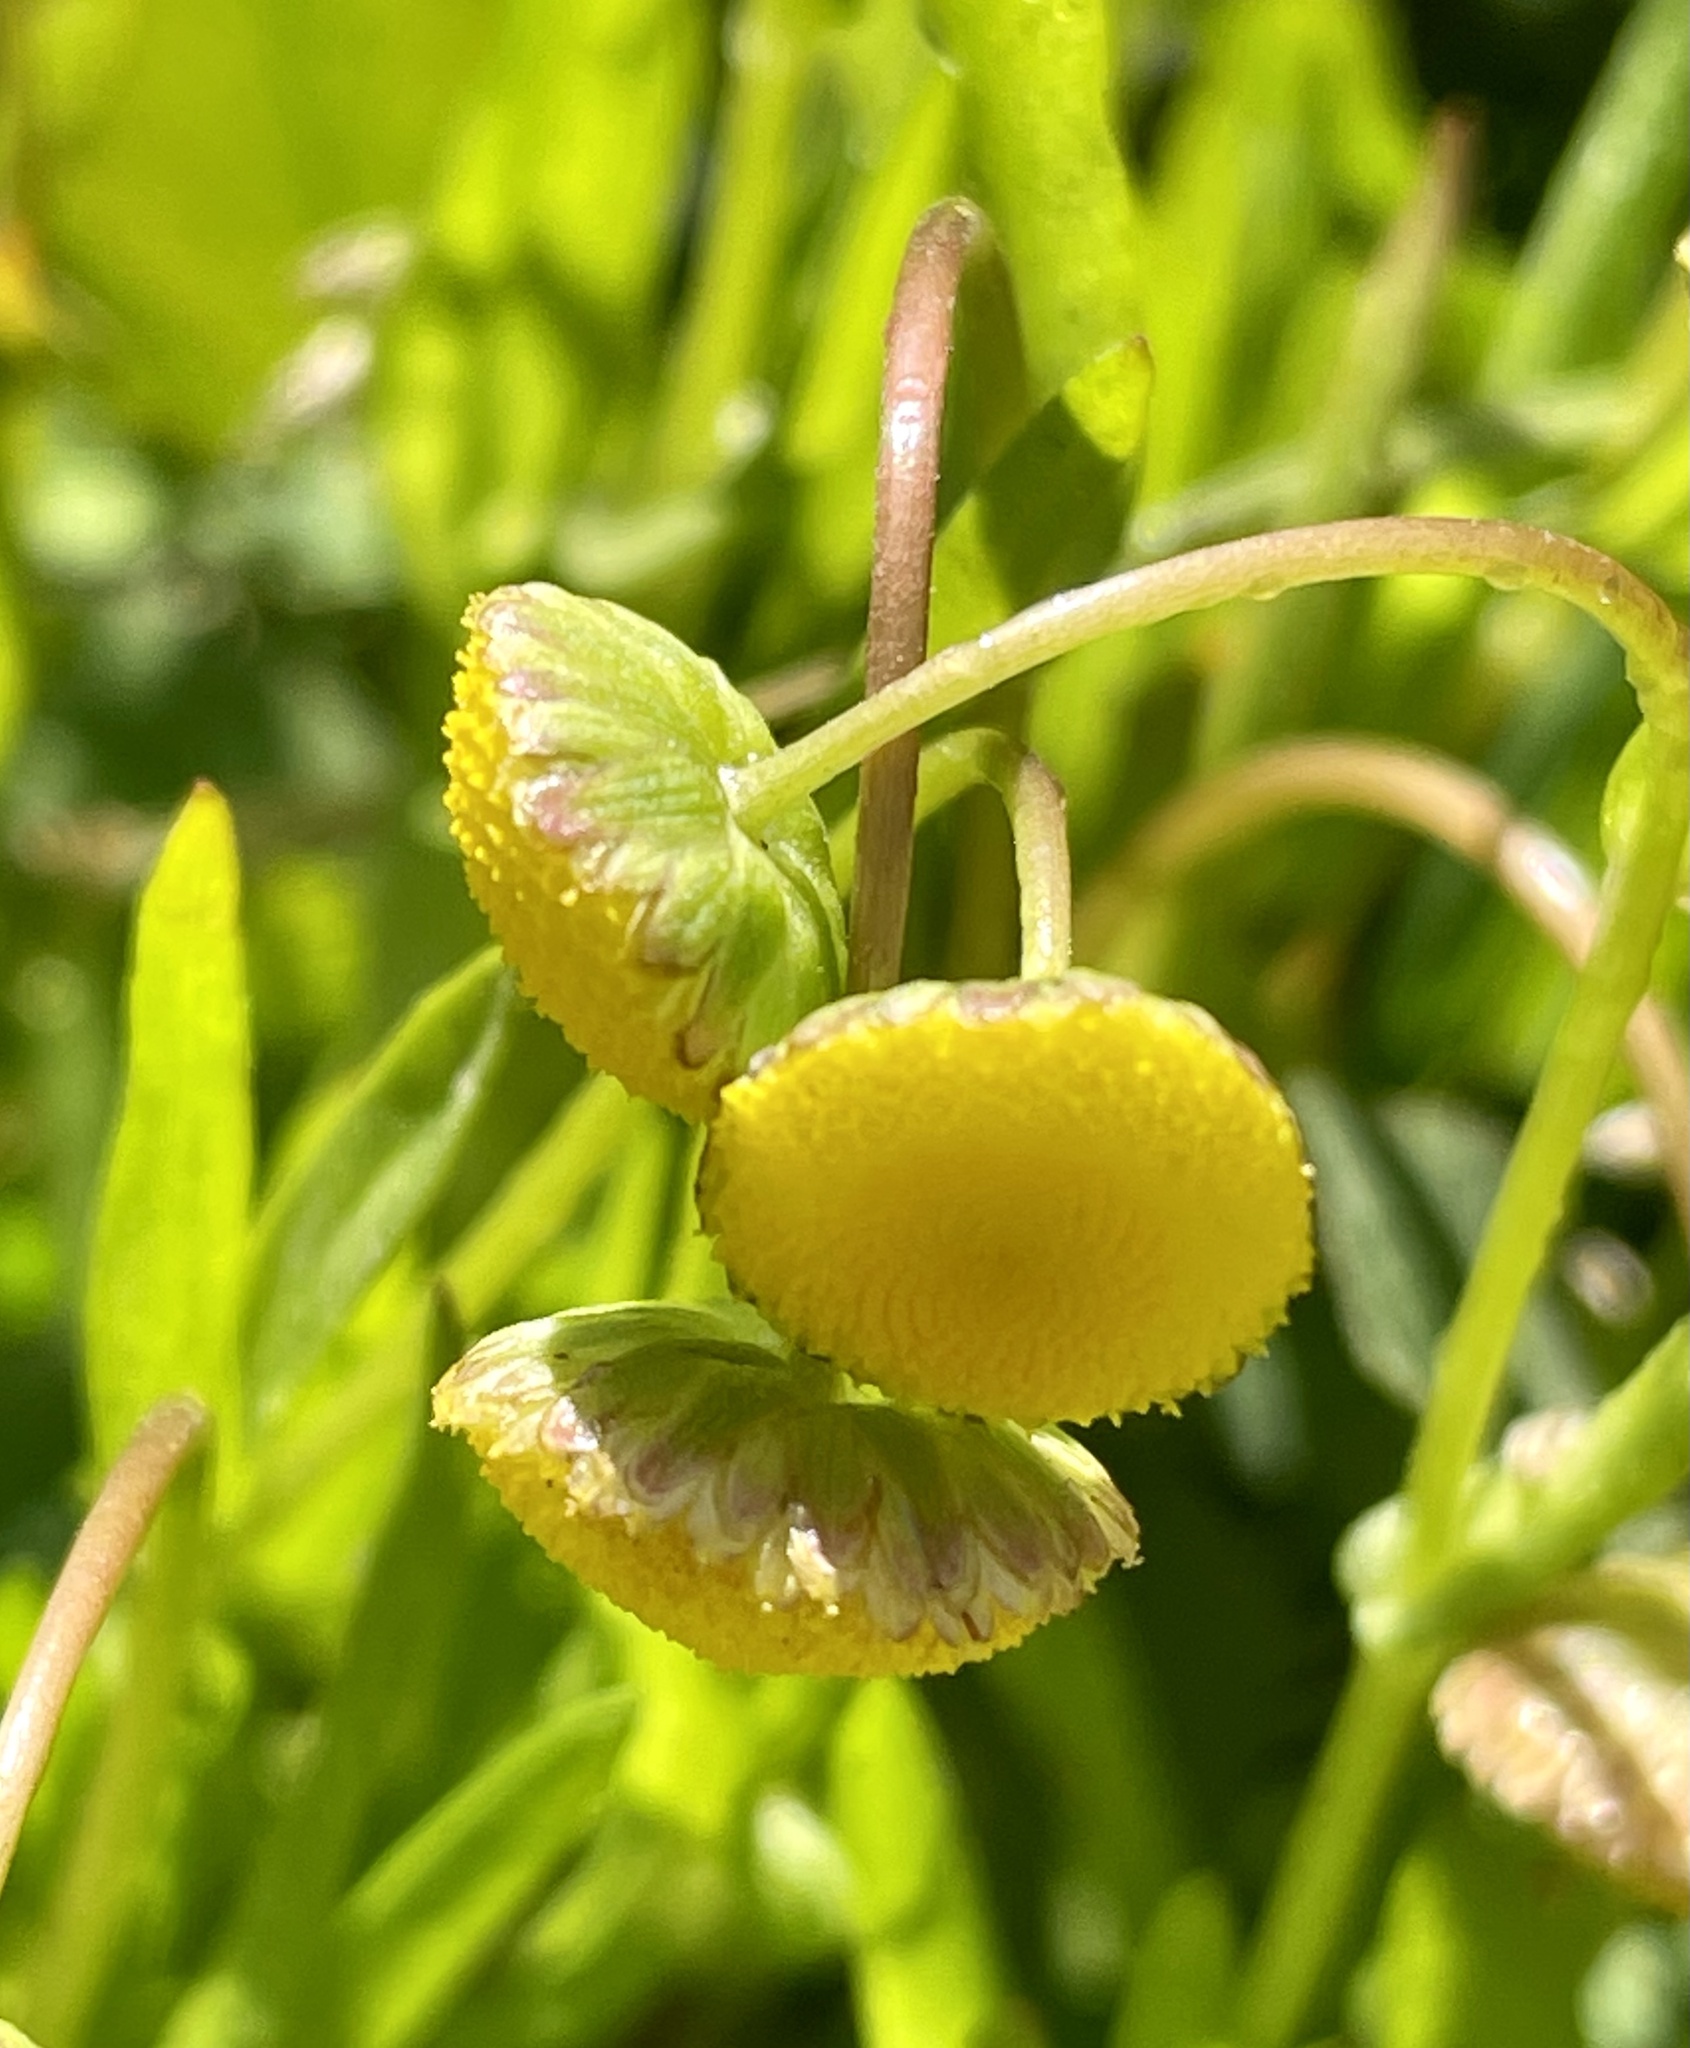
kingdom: Plantae
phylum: Tracheophyta
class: Magnoliopsida
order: Asterales
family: Asteraceae
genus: Cotula
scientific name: Cotula coronopifolia
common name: Buttonweed
